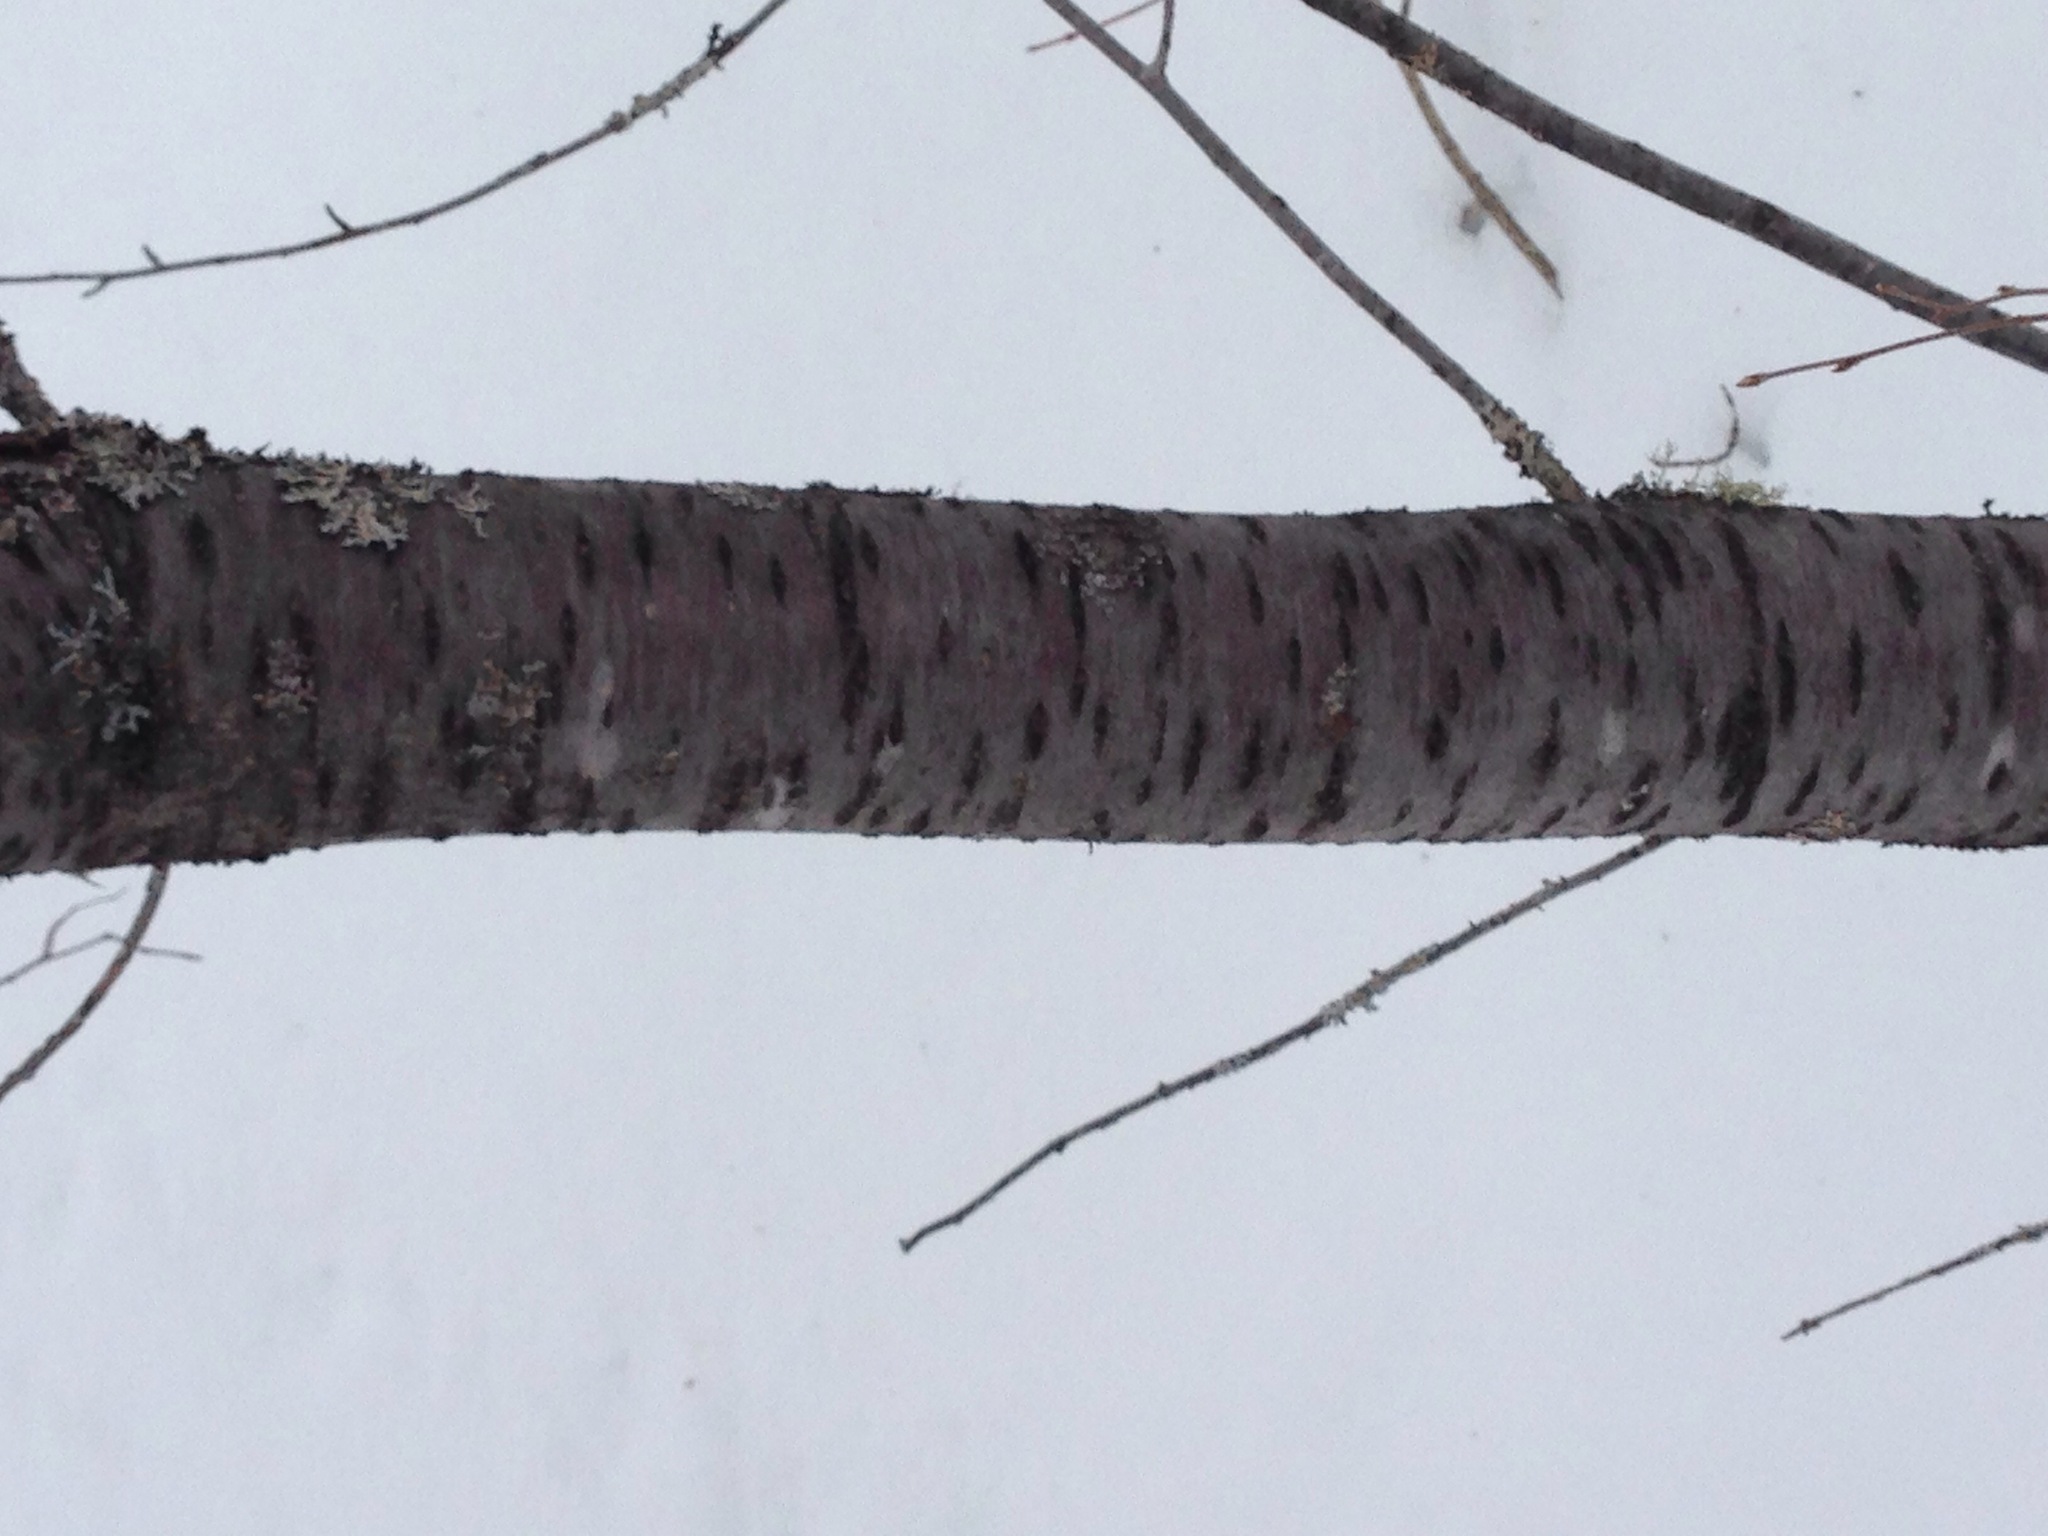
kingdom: Plantae
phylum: Tracheophyta
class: Magnoliopsida
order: Rosales
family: Rosaceae
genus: Prunus
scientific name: Prunus pensylvanica
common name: Pin cherry
